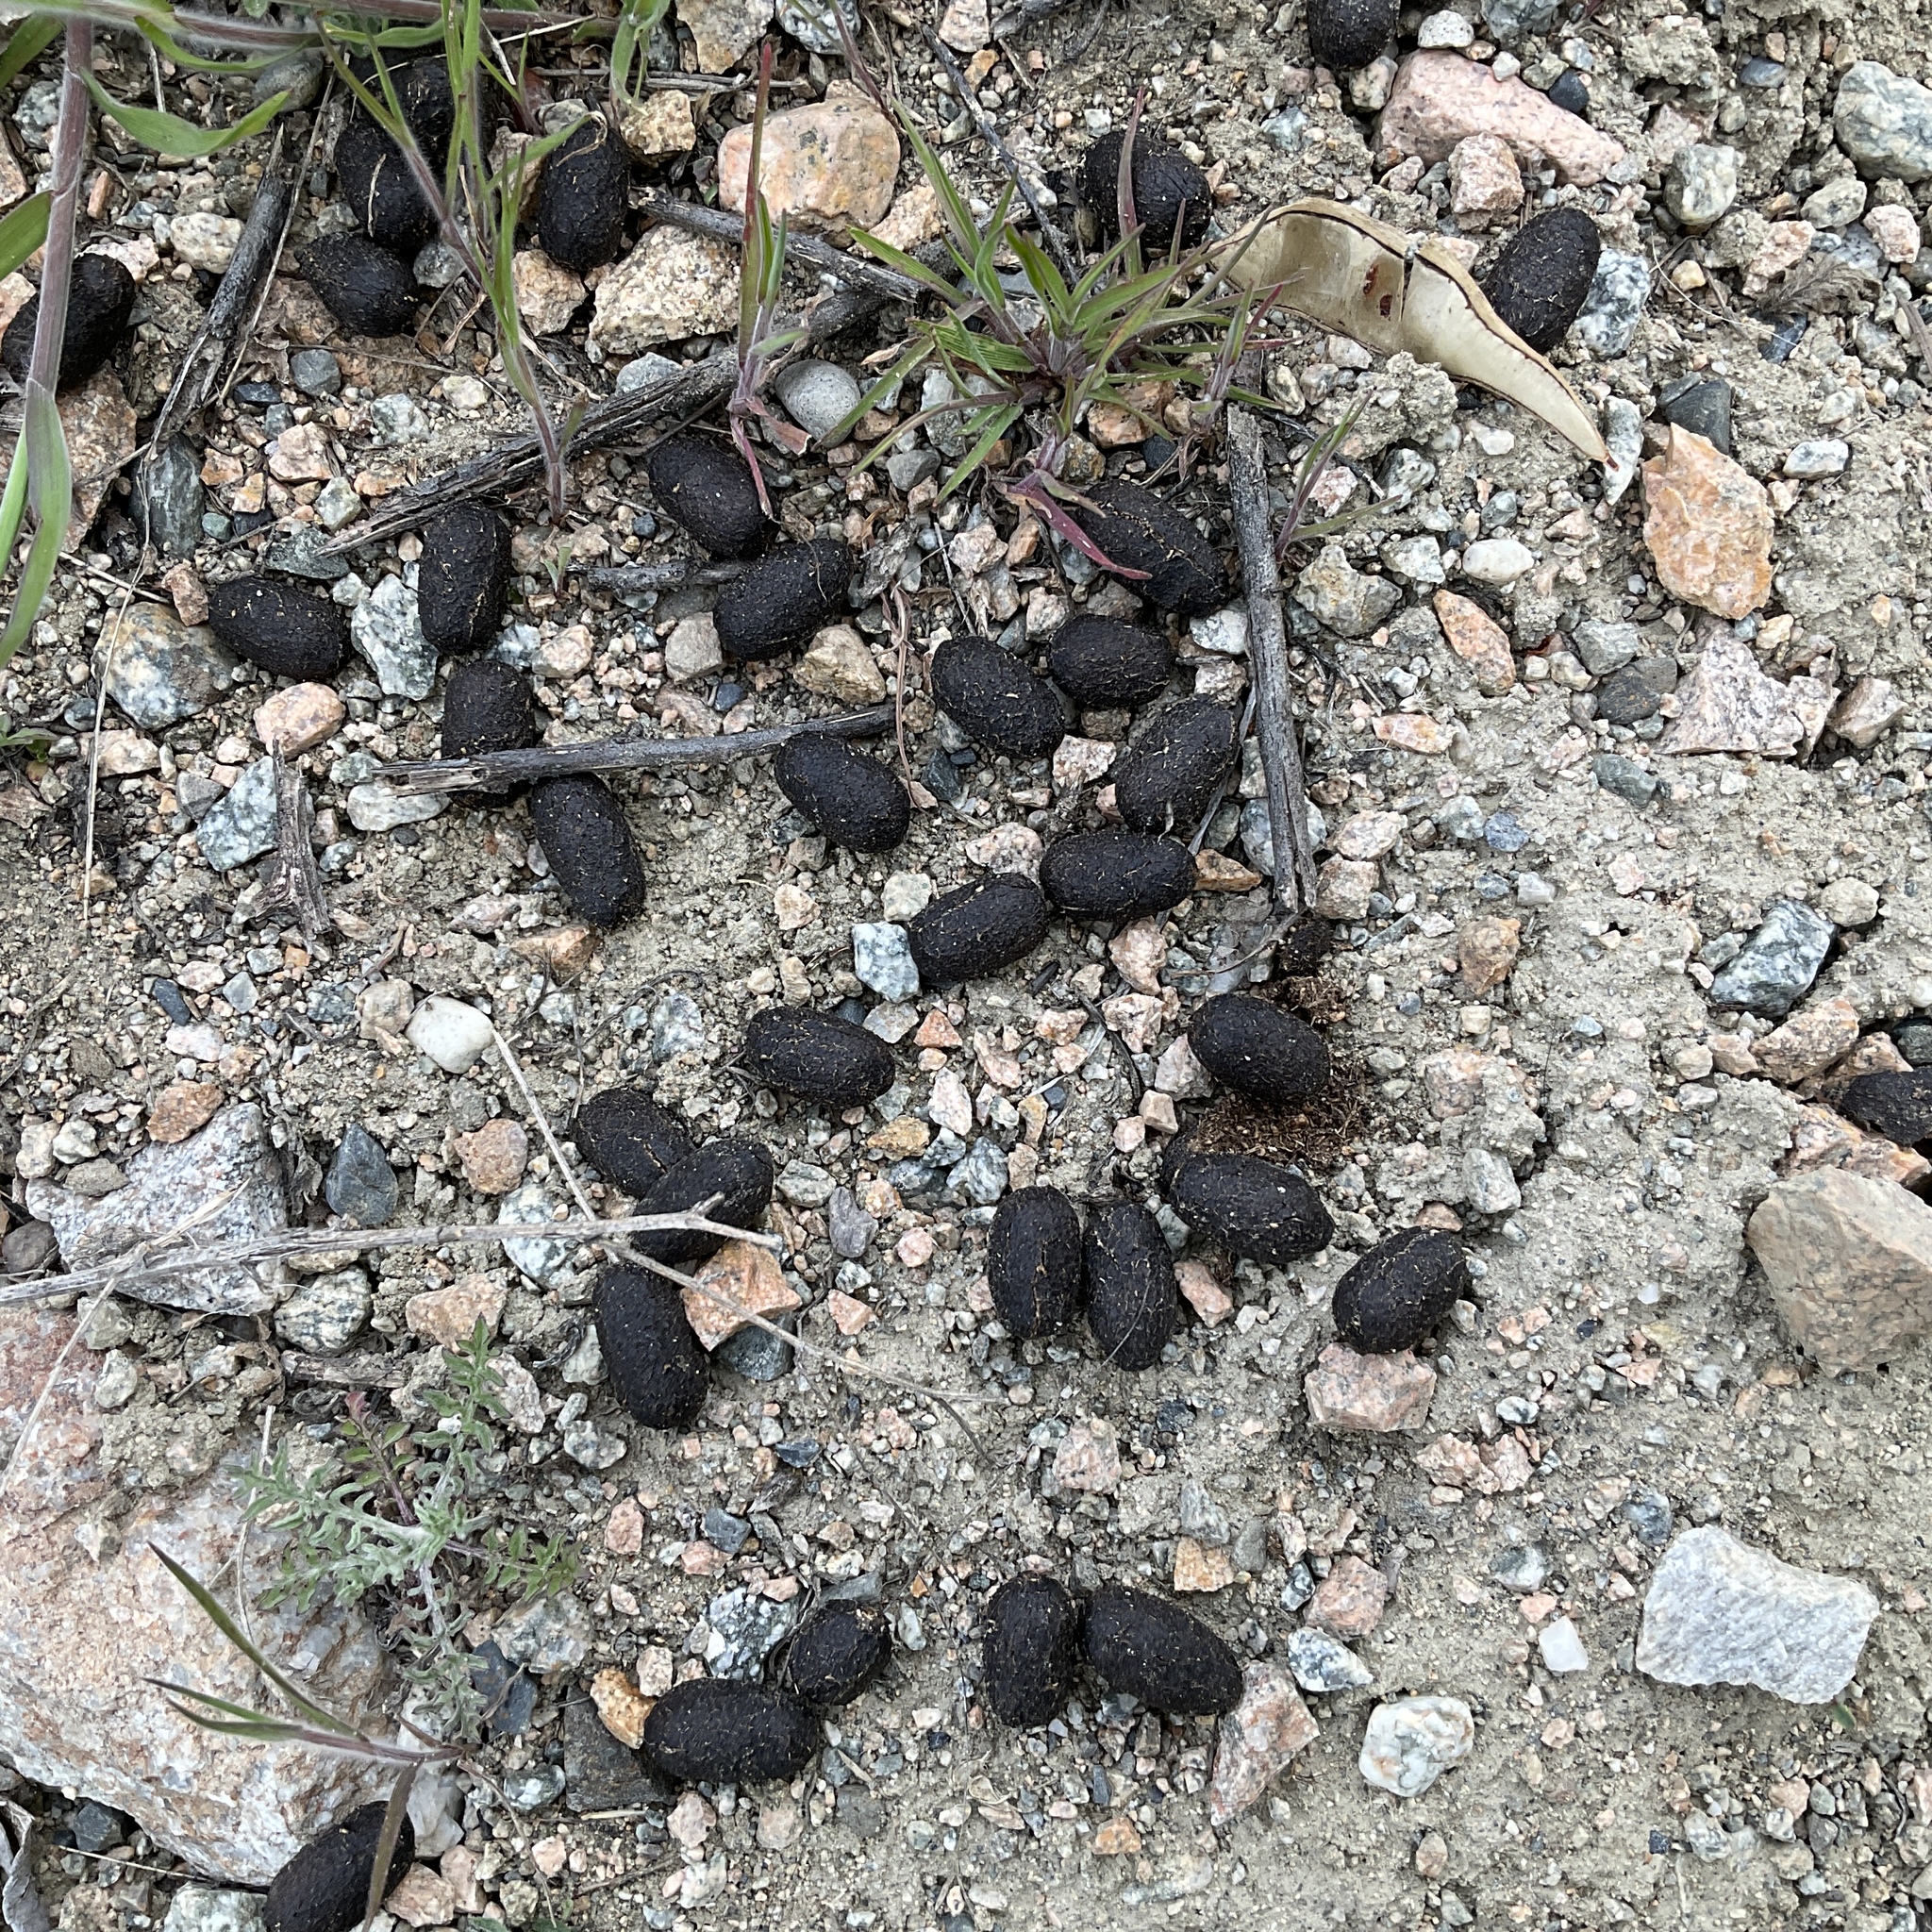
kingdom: Animalia
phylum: Chordata
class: Mammalia
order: Artiodactyla
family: Cervidae
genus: Odocoileus
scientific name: Odocoileus hemionus
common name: Mule deer
